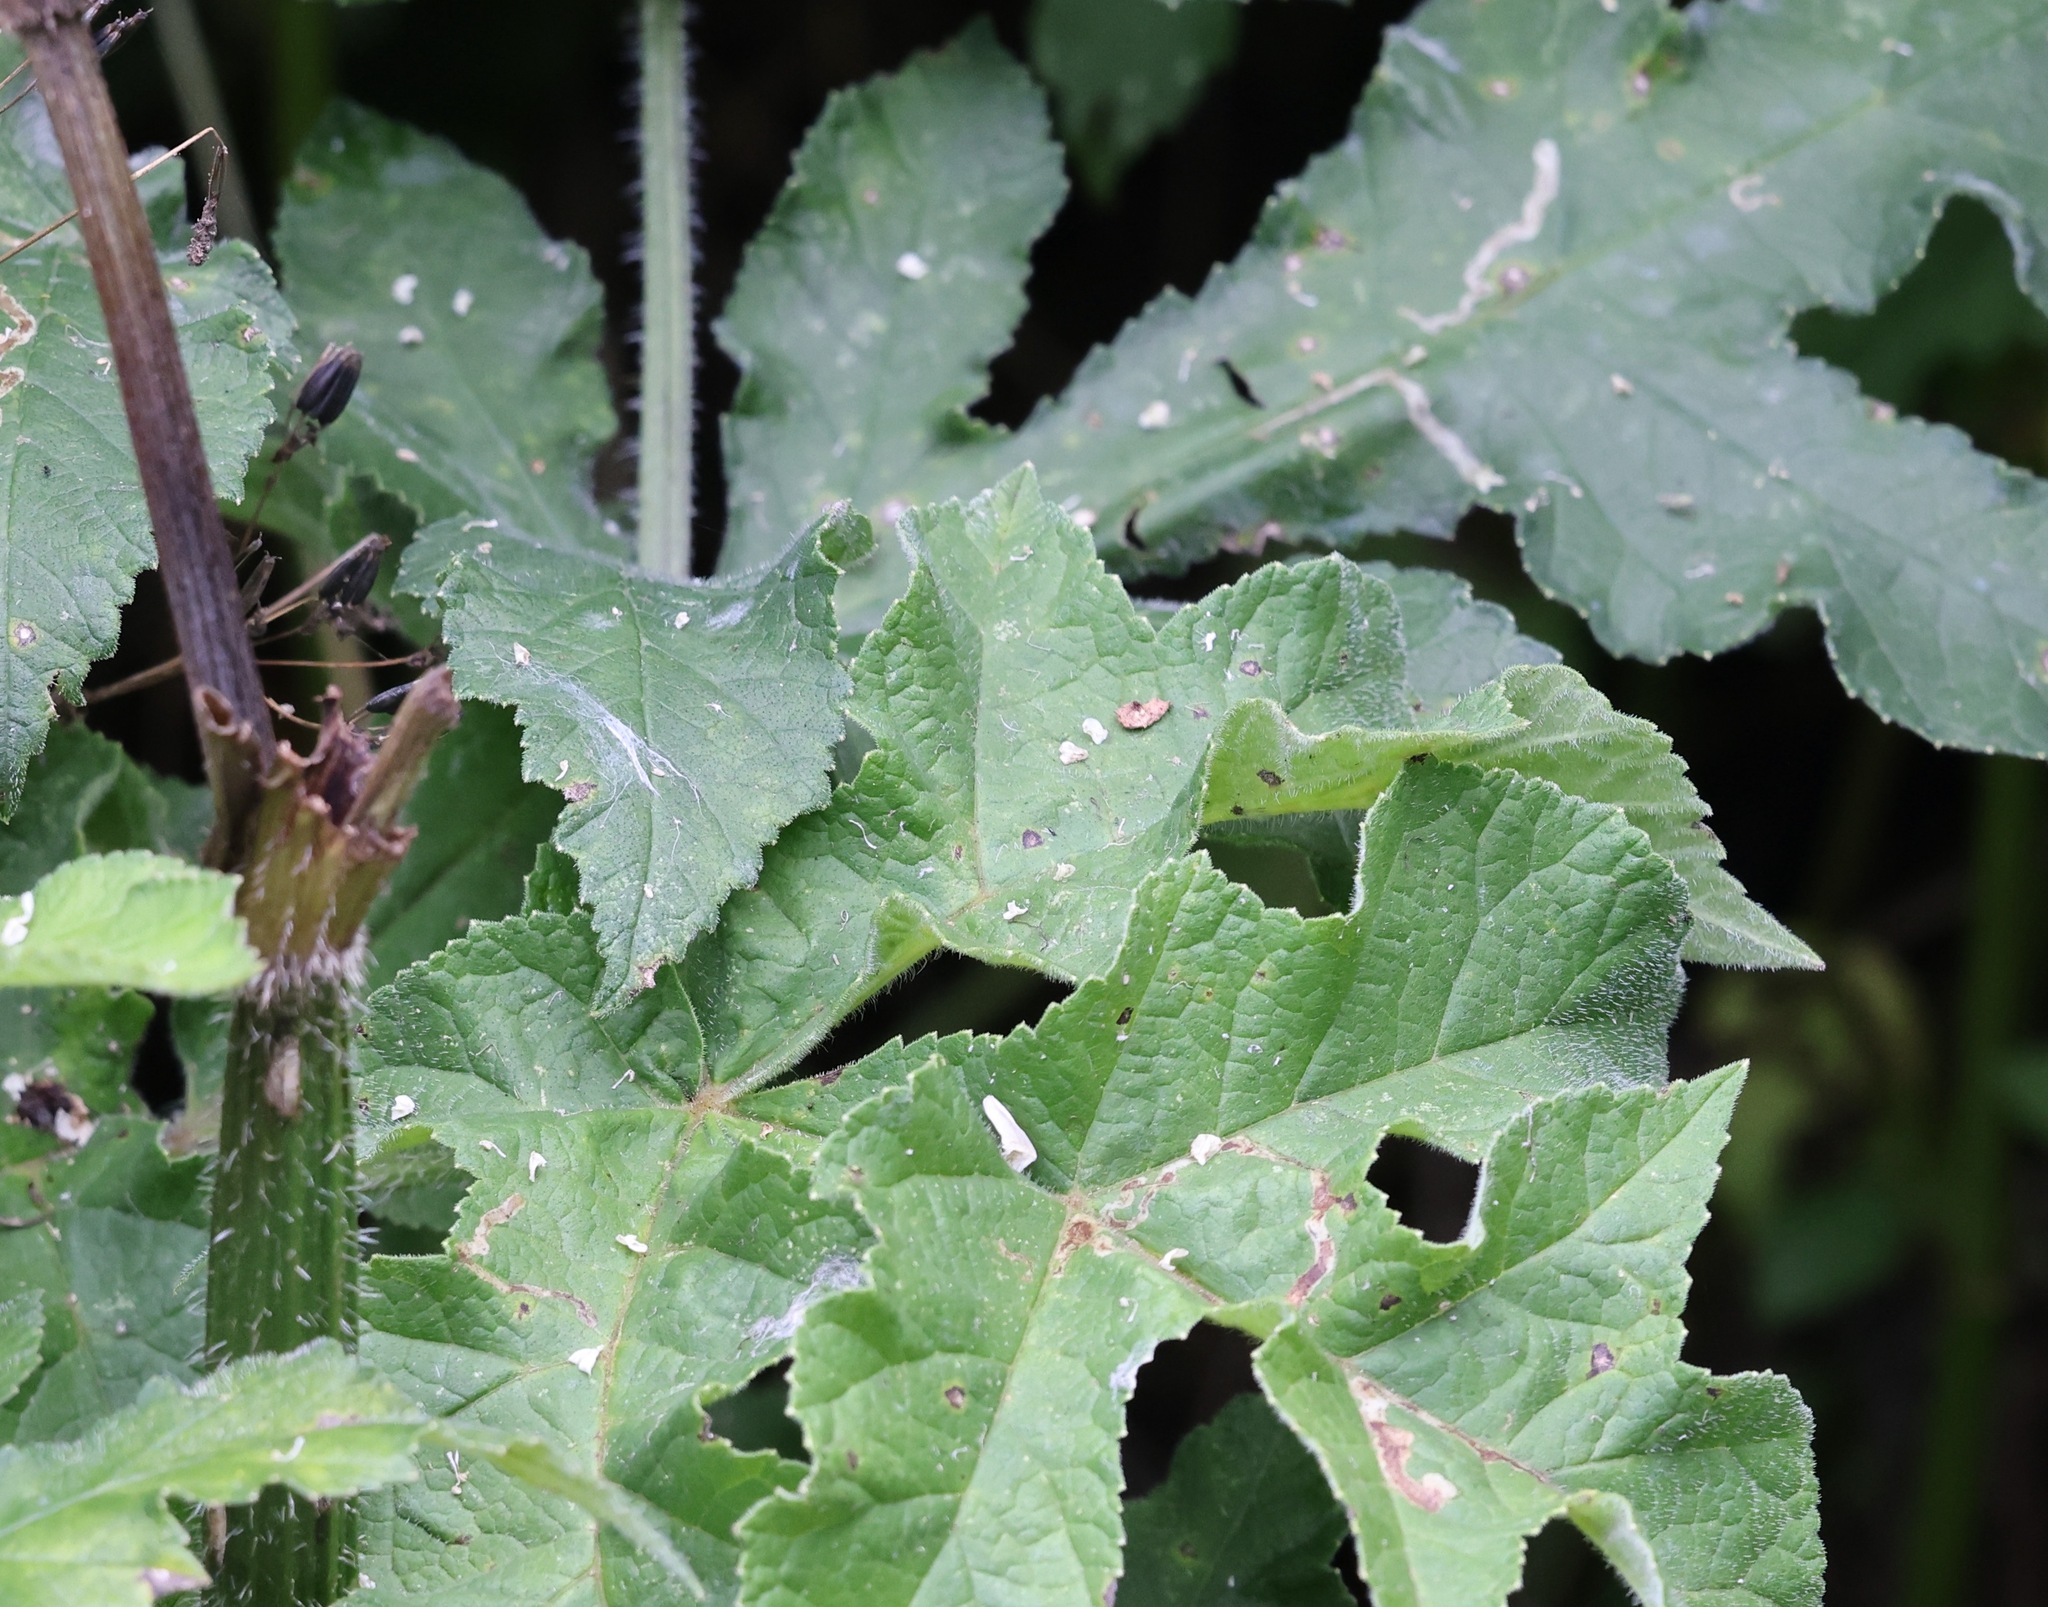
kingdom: Plantae
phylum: Tracheophyta
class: Magnoliopsida
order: Apiales
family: Apiaceae
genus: Heracleum
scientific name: Heracleum sphondylium
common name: Hogweed
